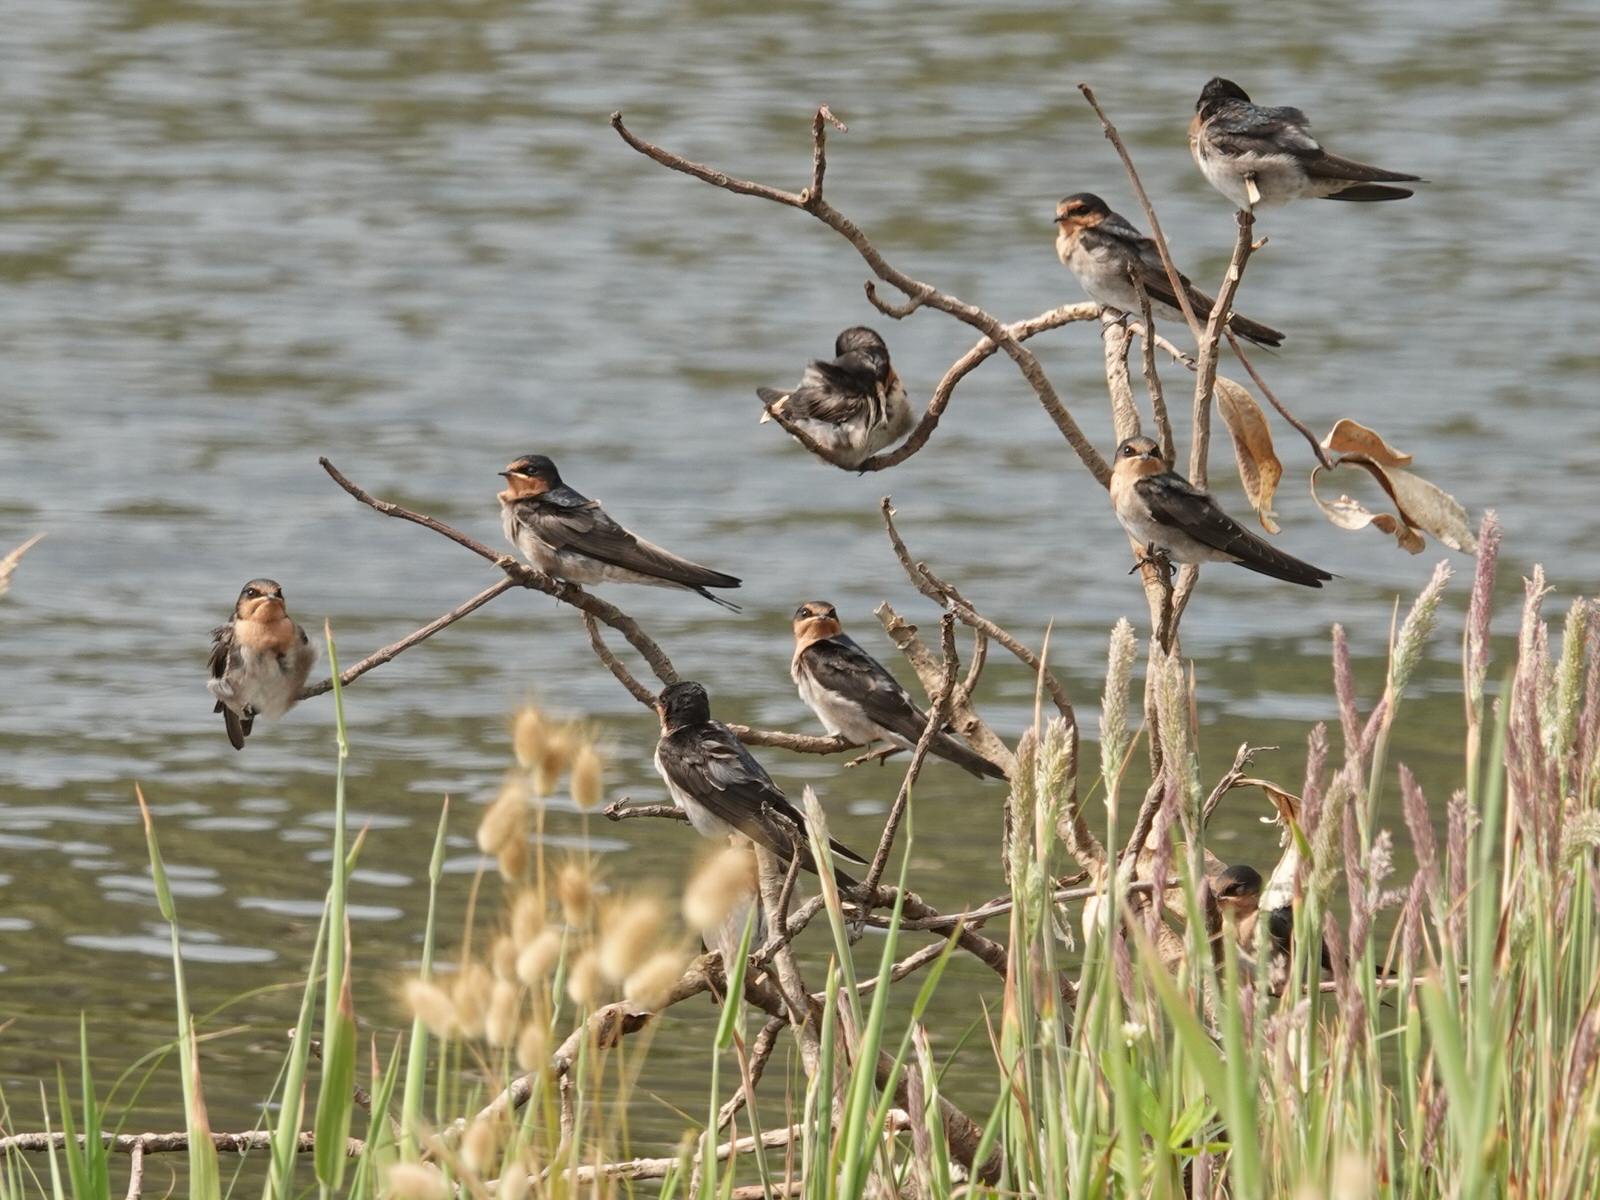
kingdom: Animalia
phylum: Chordata
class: Aves
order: Passeriformes
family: Hirundinidae
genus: Hirundo
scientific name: Hirundo neoxena
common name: Welcome swallow
